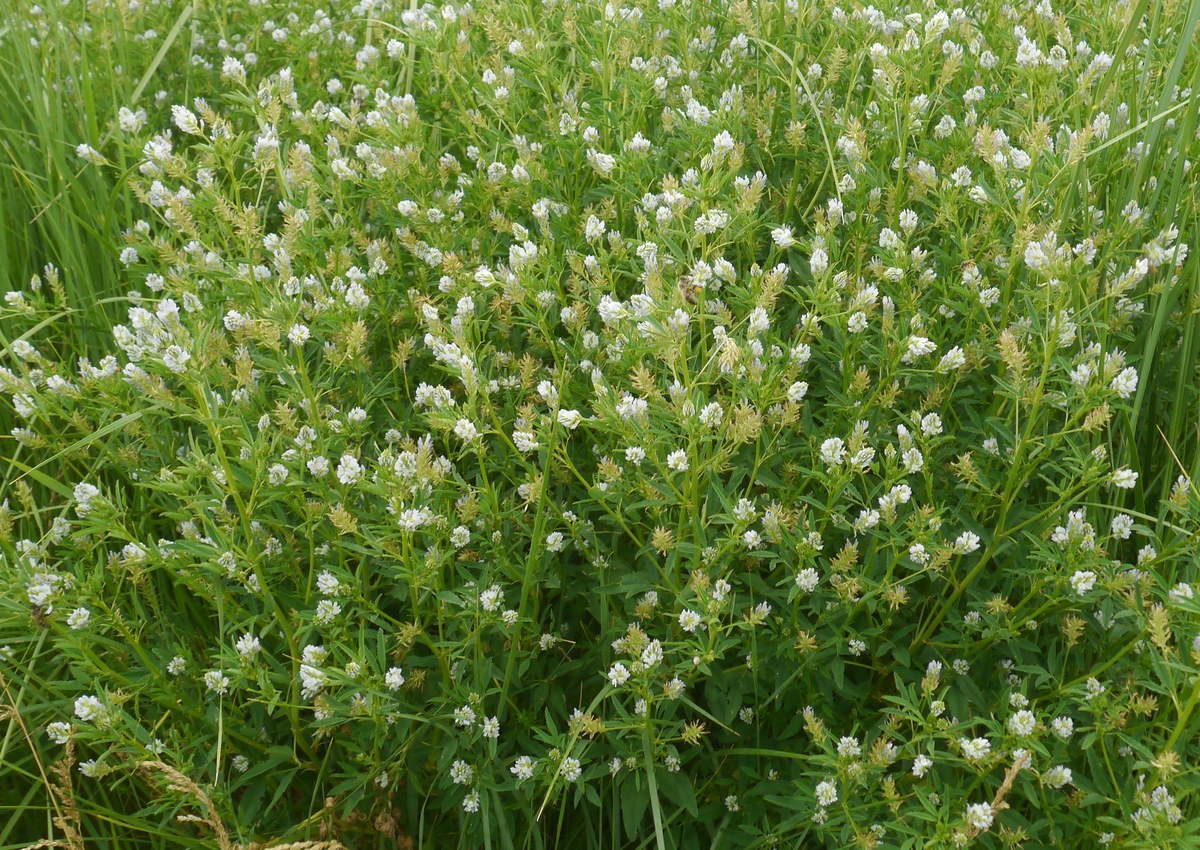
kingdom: Plantae
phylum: Tracheophyta
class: Magnoliopsida
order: Fabales
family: Fabaceae
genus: Trigonella
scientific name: Trigonella procumbens
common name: Trailing fenugreek
